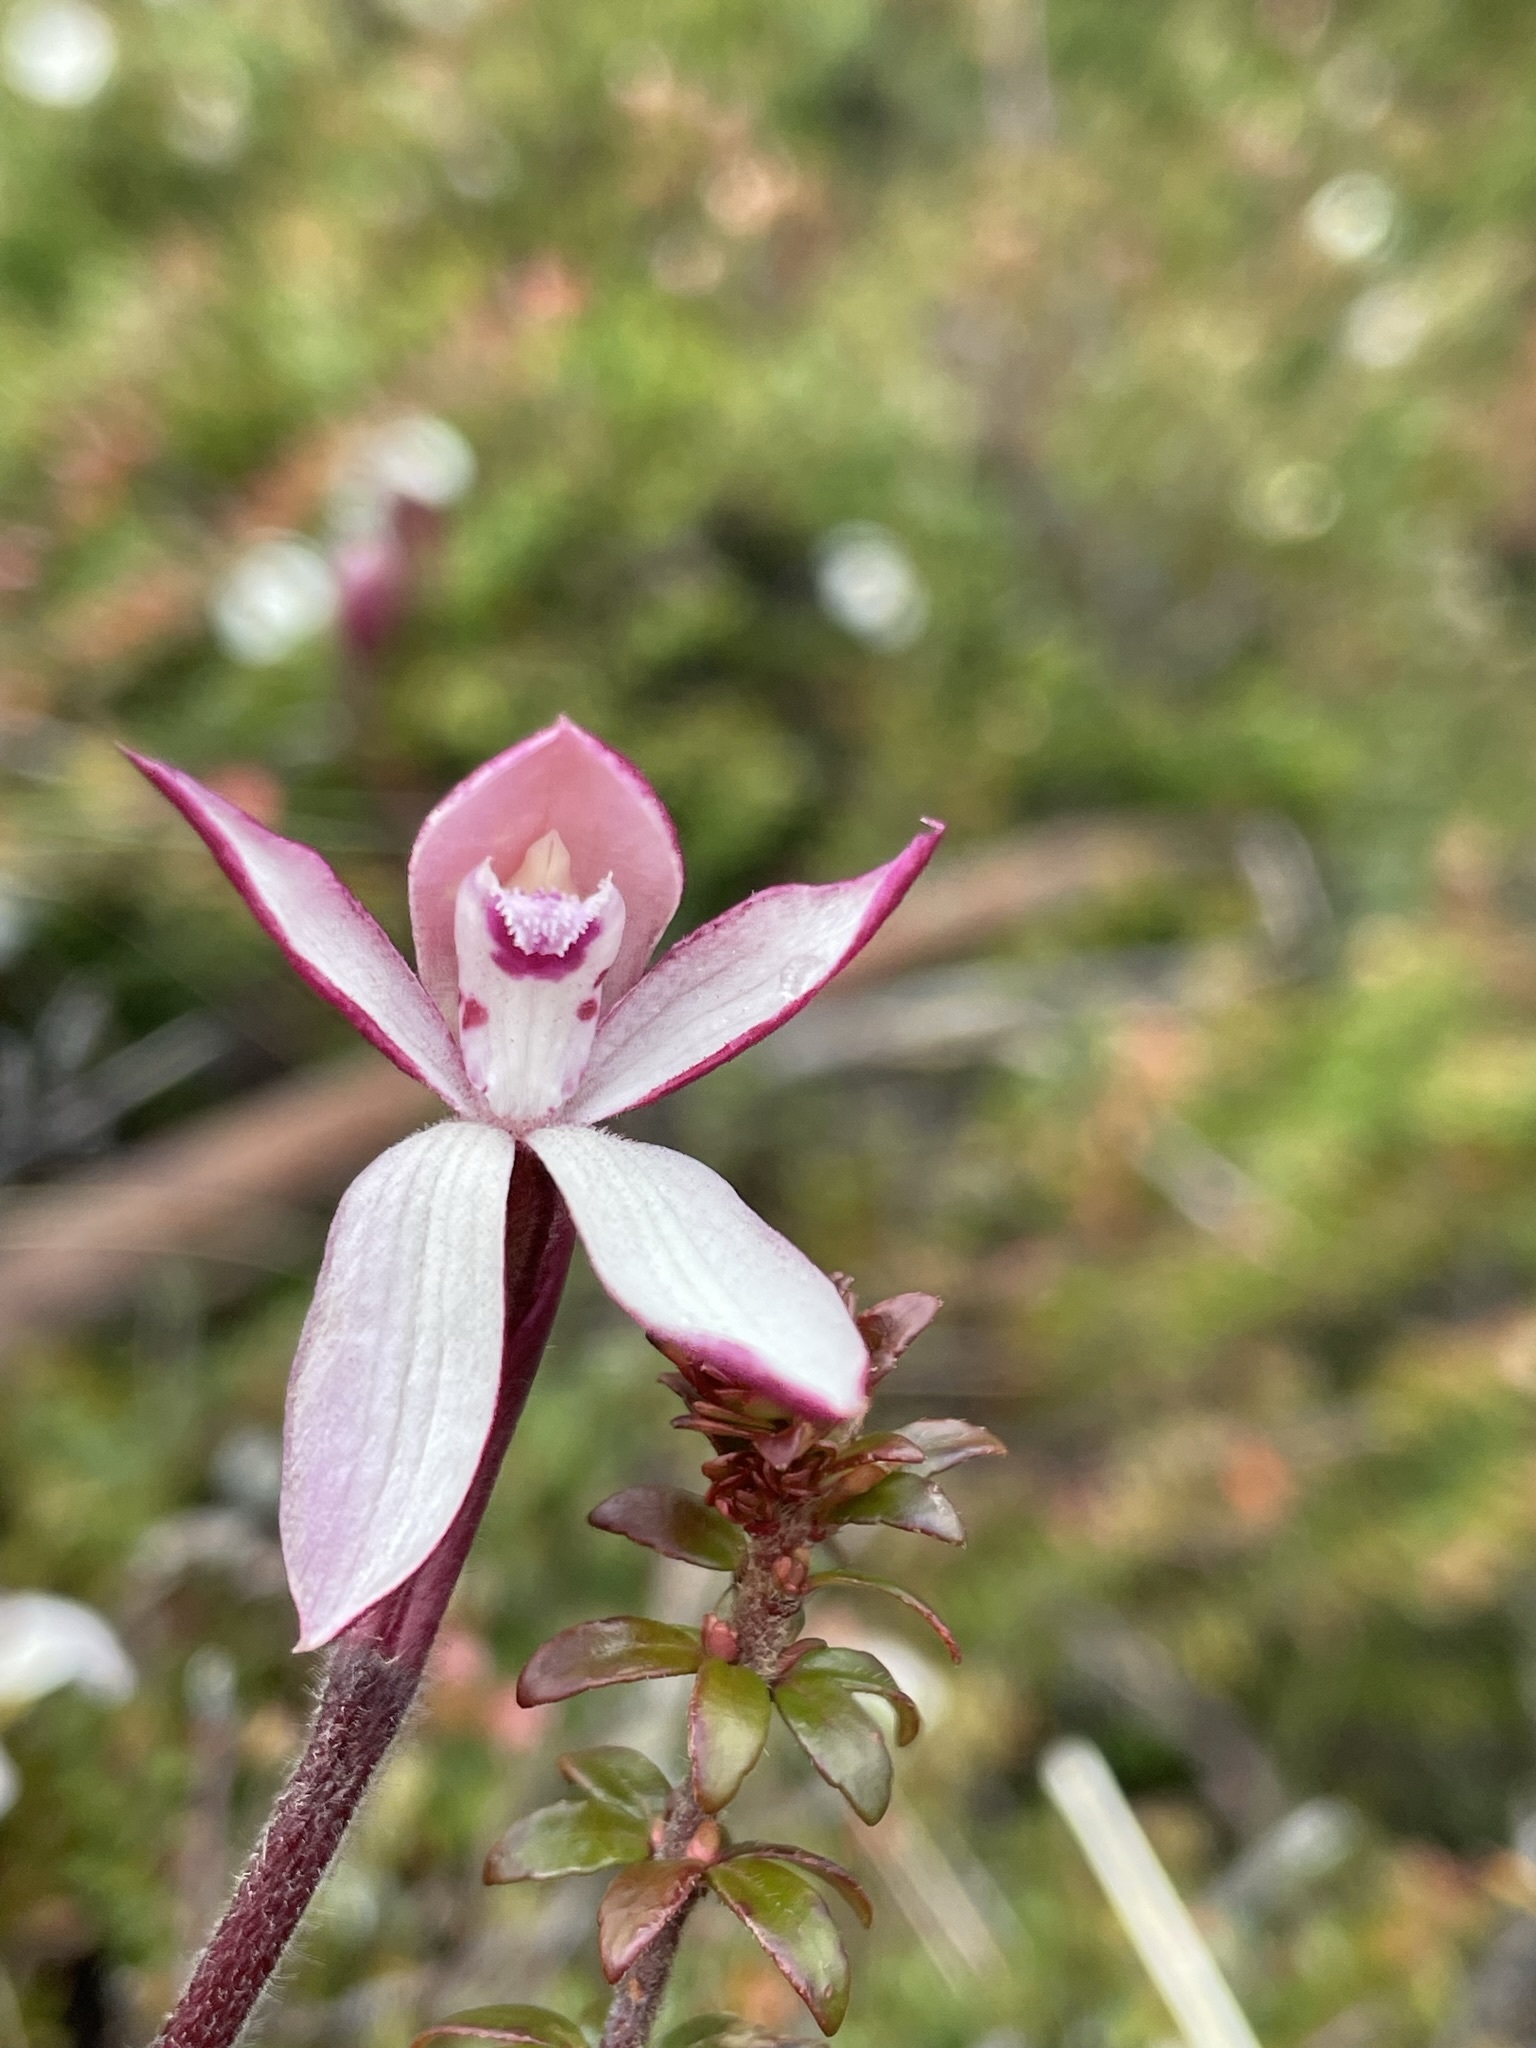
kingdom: Plantae
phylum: Tracheophyta
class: Liliopsida
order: Asparagales
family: Orchidaceae
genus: Caladenia
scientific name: Caladenia alpina
